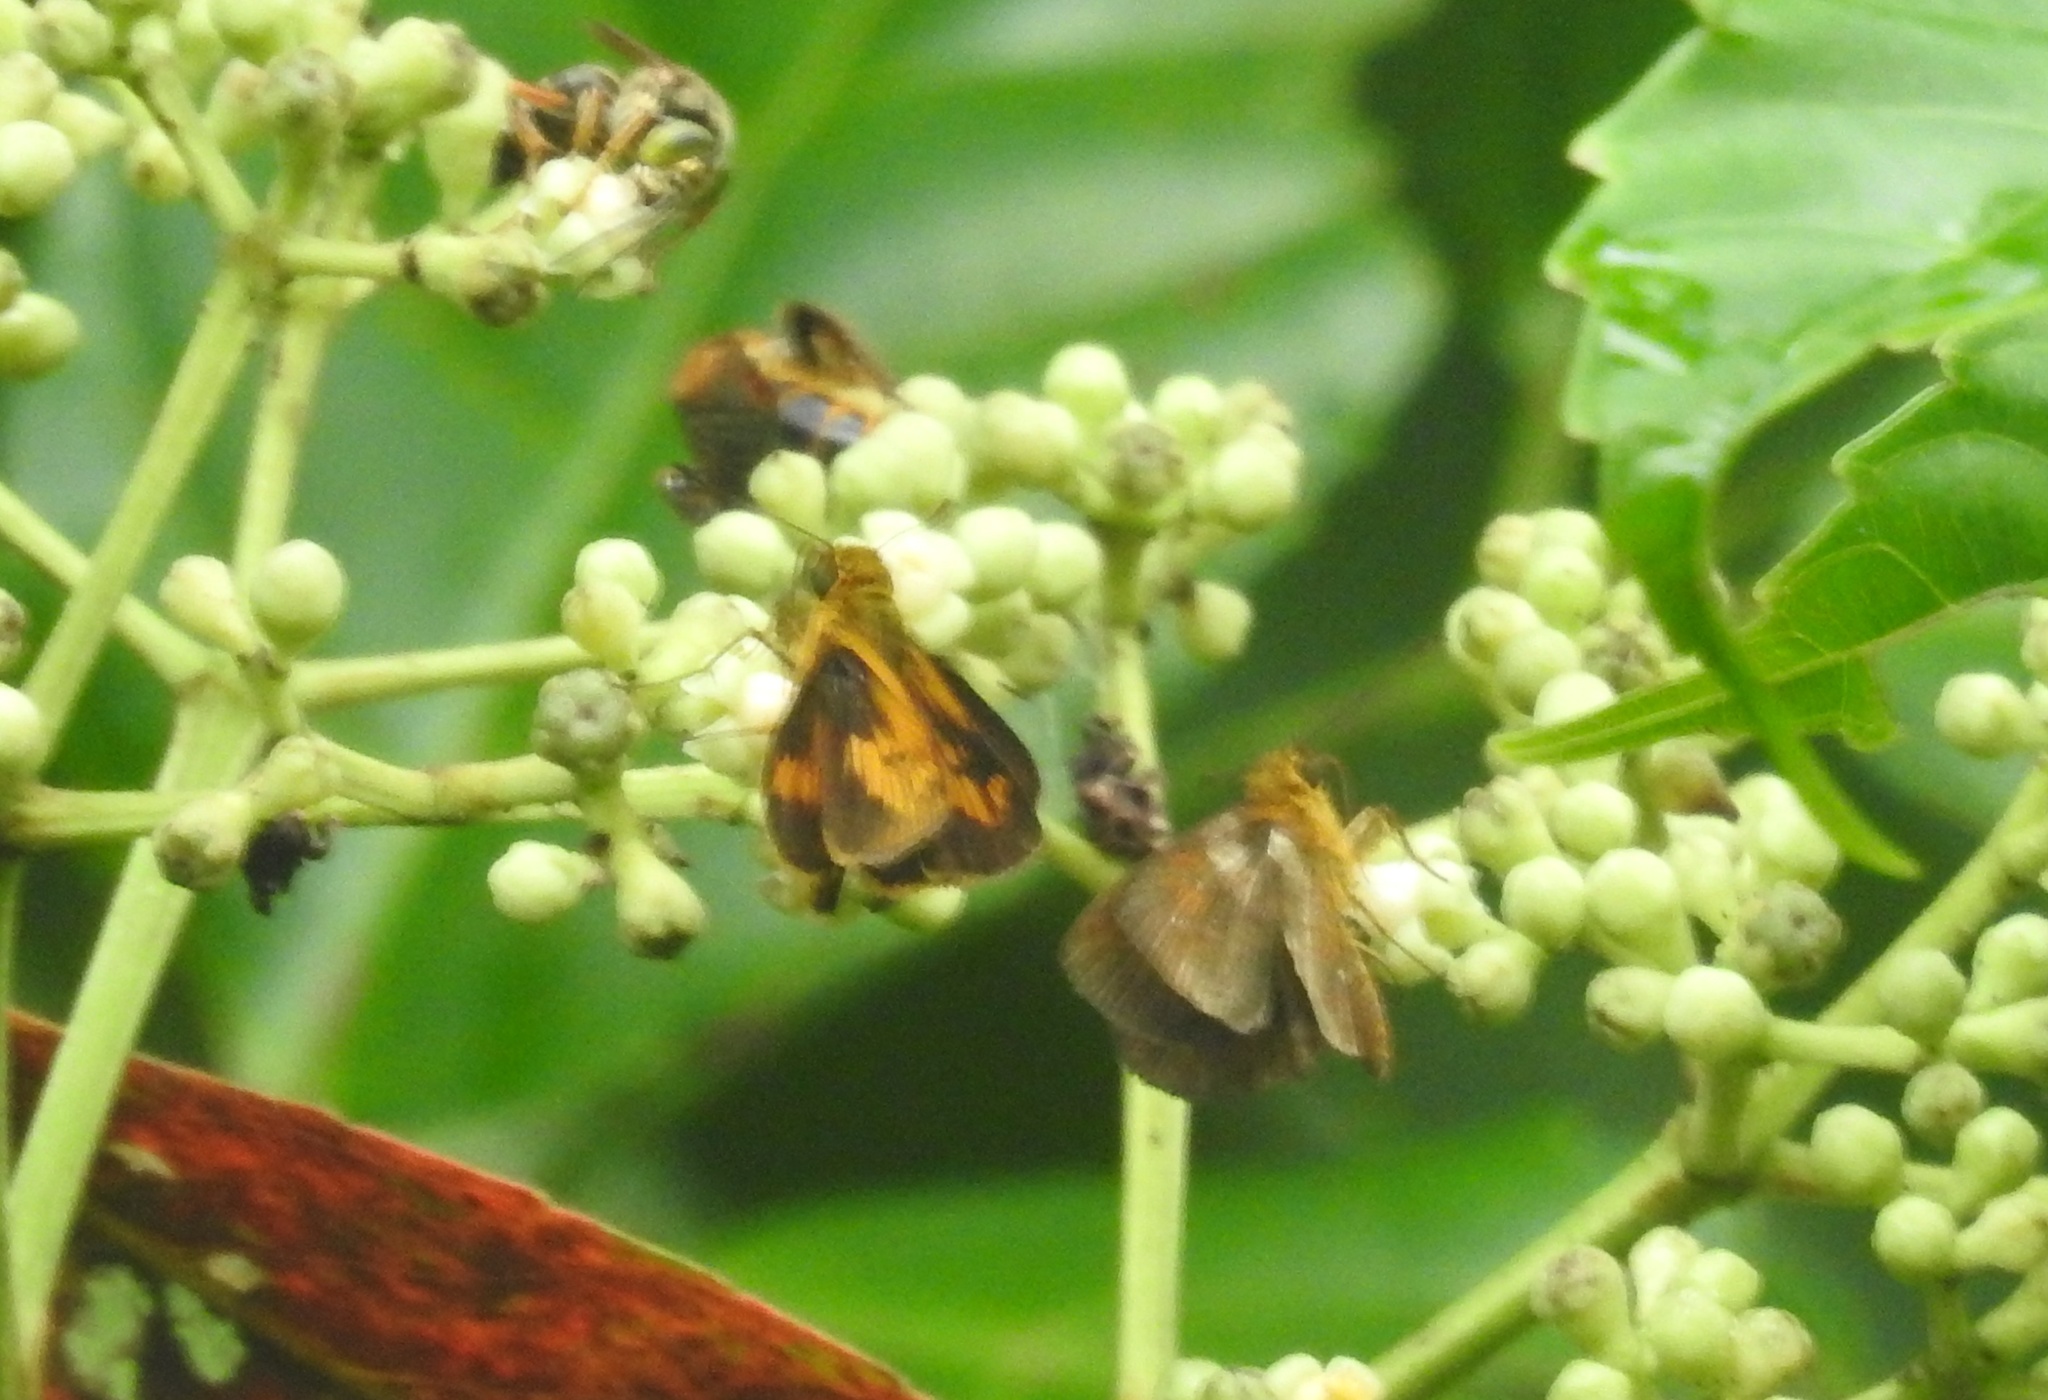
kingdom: Animalia
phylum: Arthropoda
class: Insecta
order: Lepidoptera
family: Hesperiidae
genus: Oriens
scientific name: Oriens goloides
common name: Smaller dartlet
